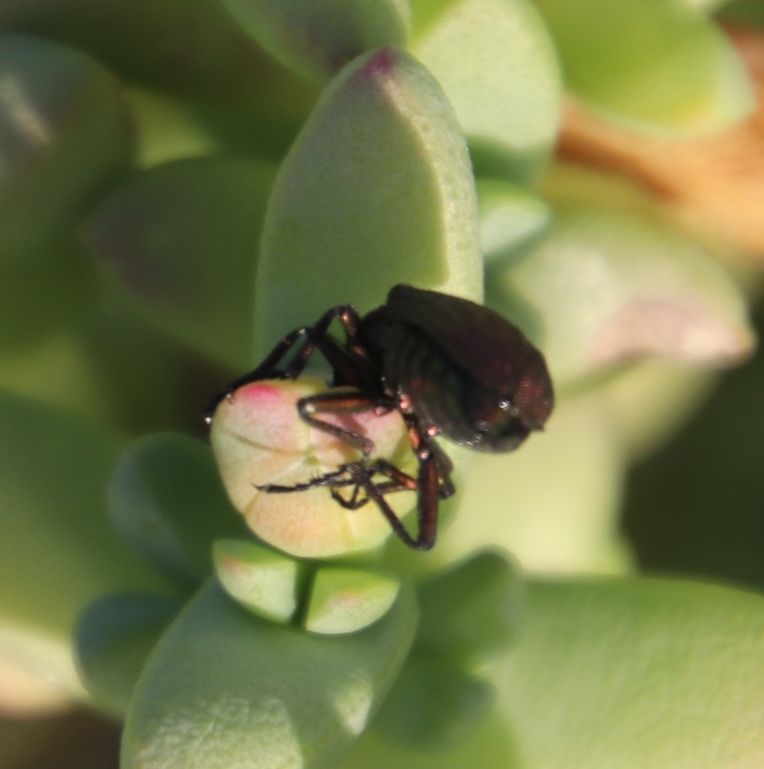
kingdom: Animalia
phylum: Arthropoda
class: Insecta
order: Coleoptera
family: Melyridae
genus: Melyris
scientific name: Melyris viridis
